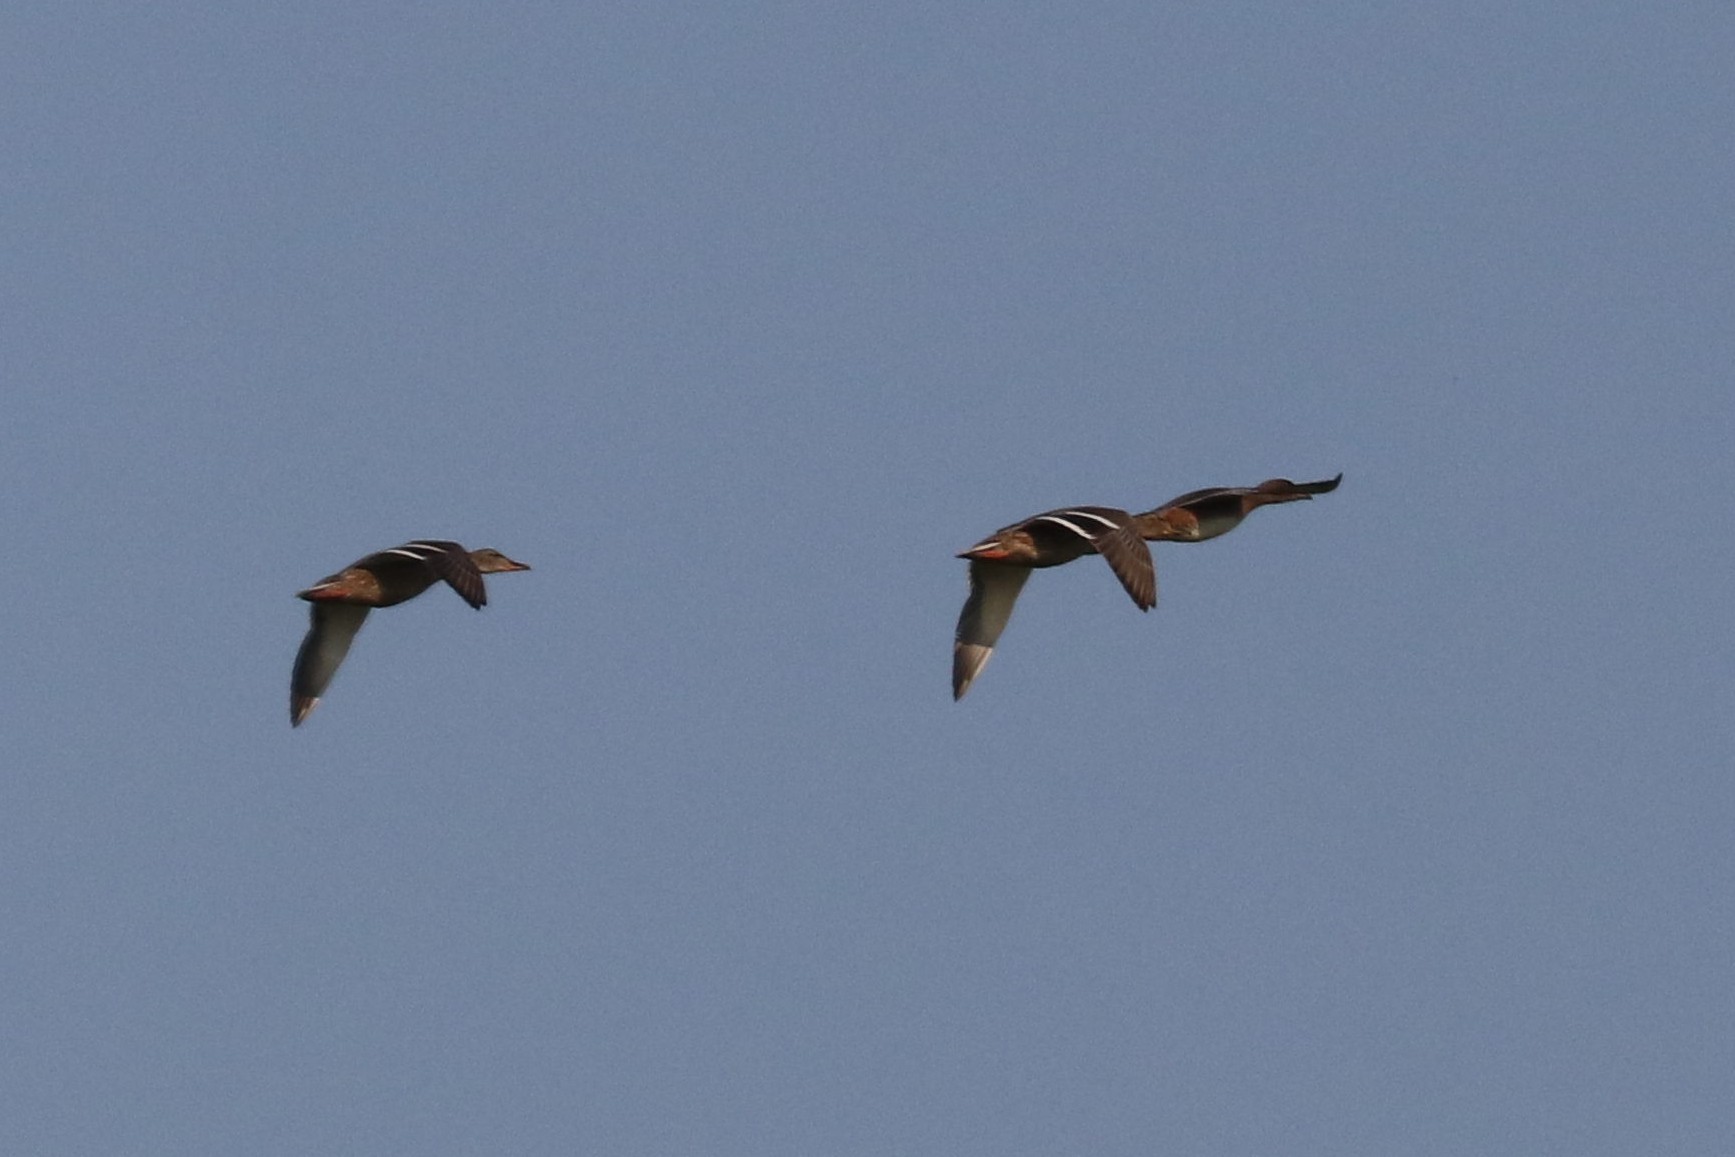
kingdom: Animalia
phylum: Chordata
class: Aves
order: Anseriformes
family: Anatidae
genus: Anas
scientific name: Anas platyrhynchos
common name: Mallard
